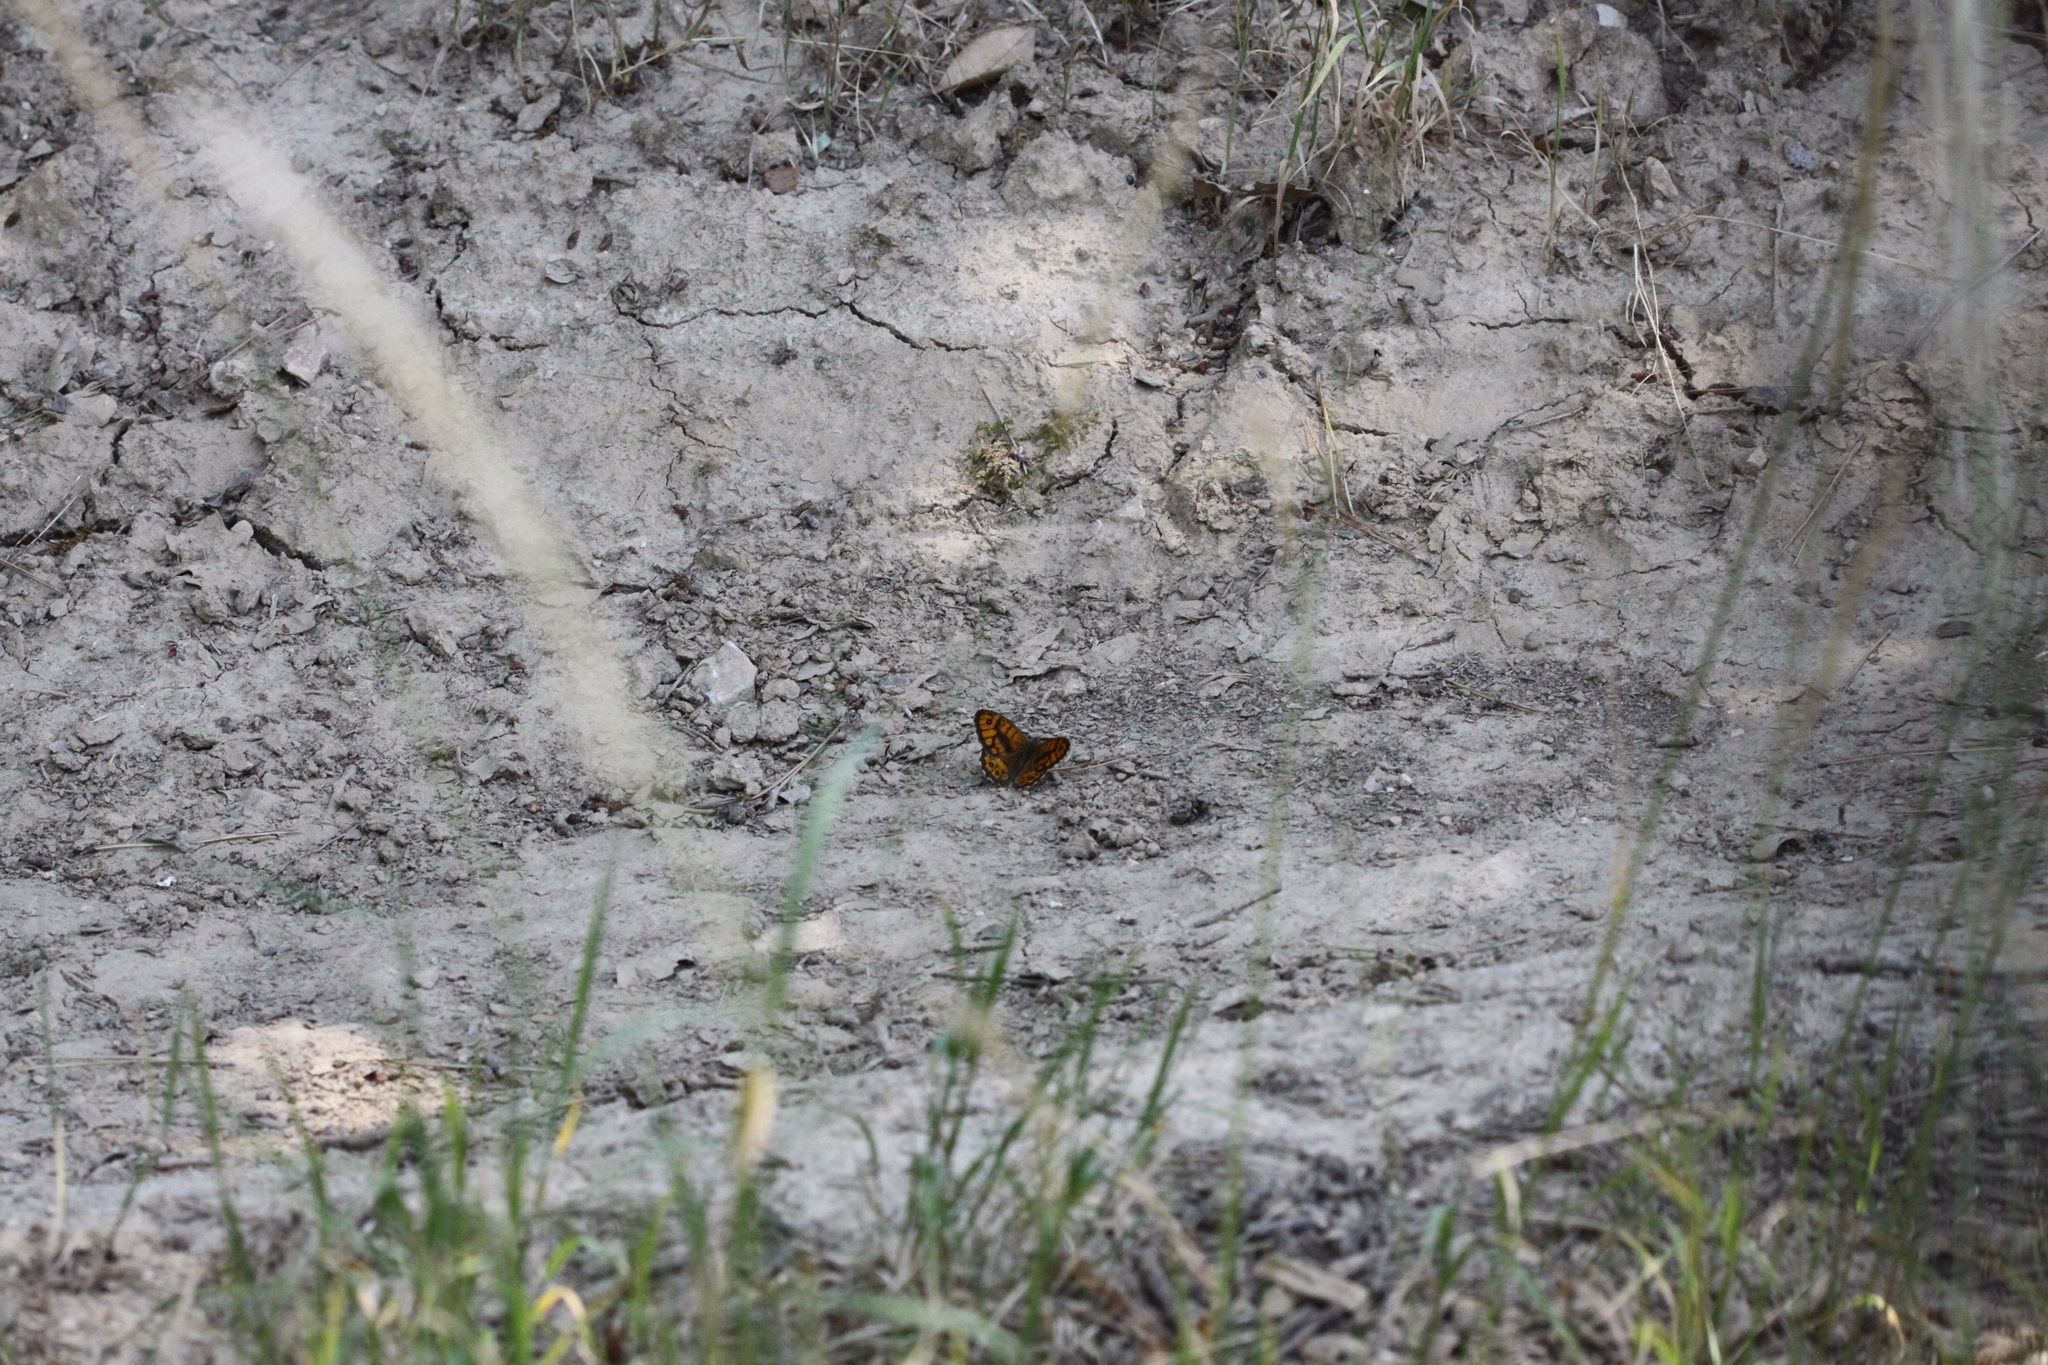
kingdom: Animalia
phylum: Arthropoda
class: Insecta
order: Lepidoptera
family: Nymphalidae
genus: Pararge
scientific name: Pararge Lasiommata megera
